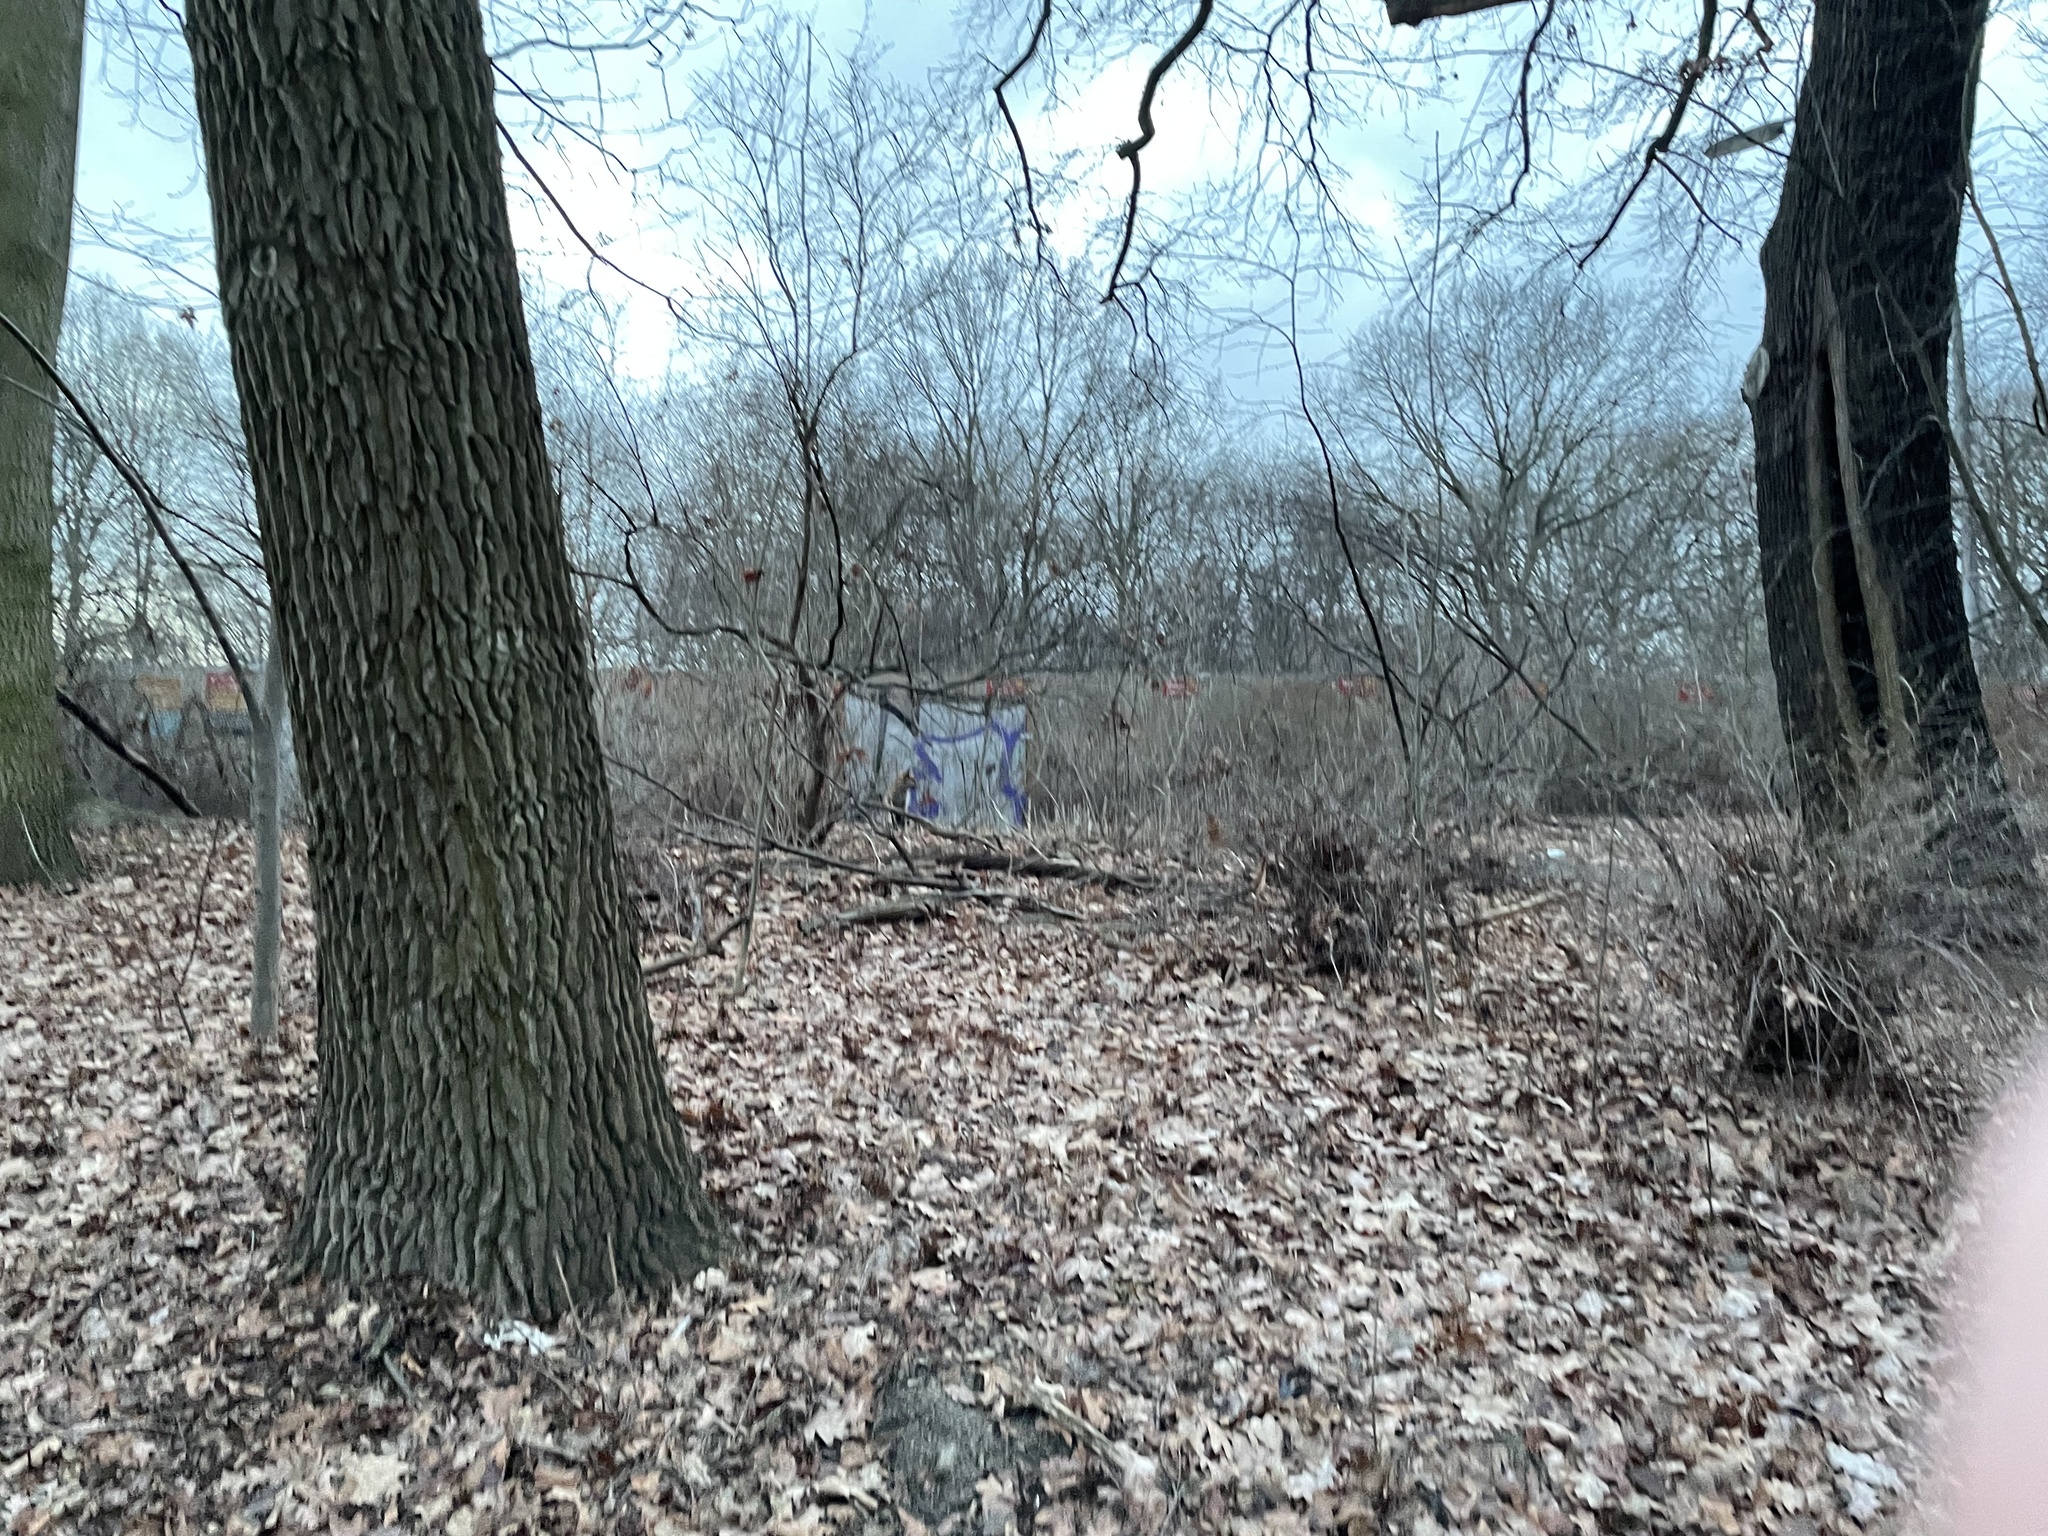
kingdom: Animalia
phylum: Chordata
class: Mammalia
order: Carnivora
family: Canidae
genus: Vulpes
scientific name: Vulpes vulpes
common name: Red fox
